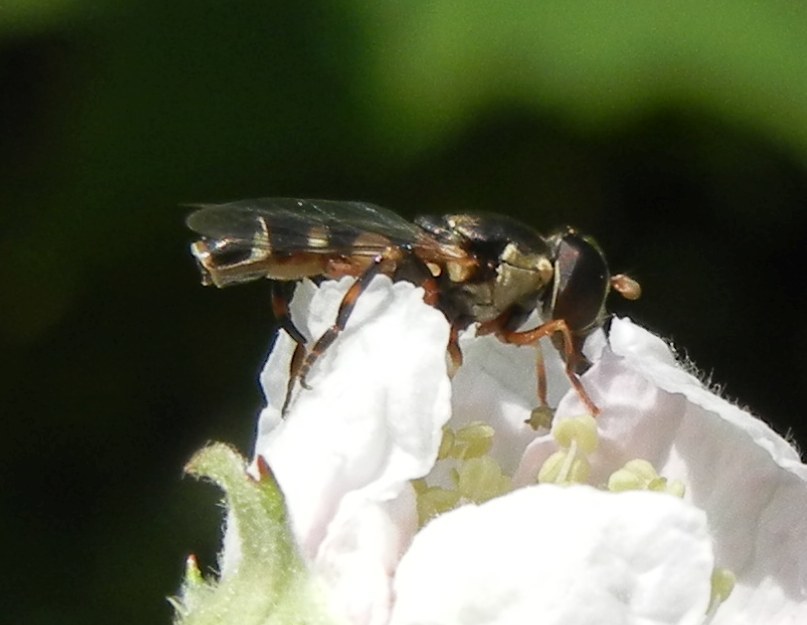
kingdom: Animalia
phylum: Arthropoda
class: Insecta
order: Diptera
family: Syrphidae
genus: Syritta
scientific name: Syritta pipiens
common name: Hover fly
